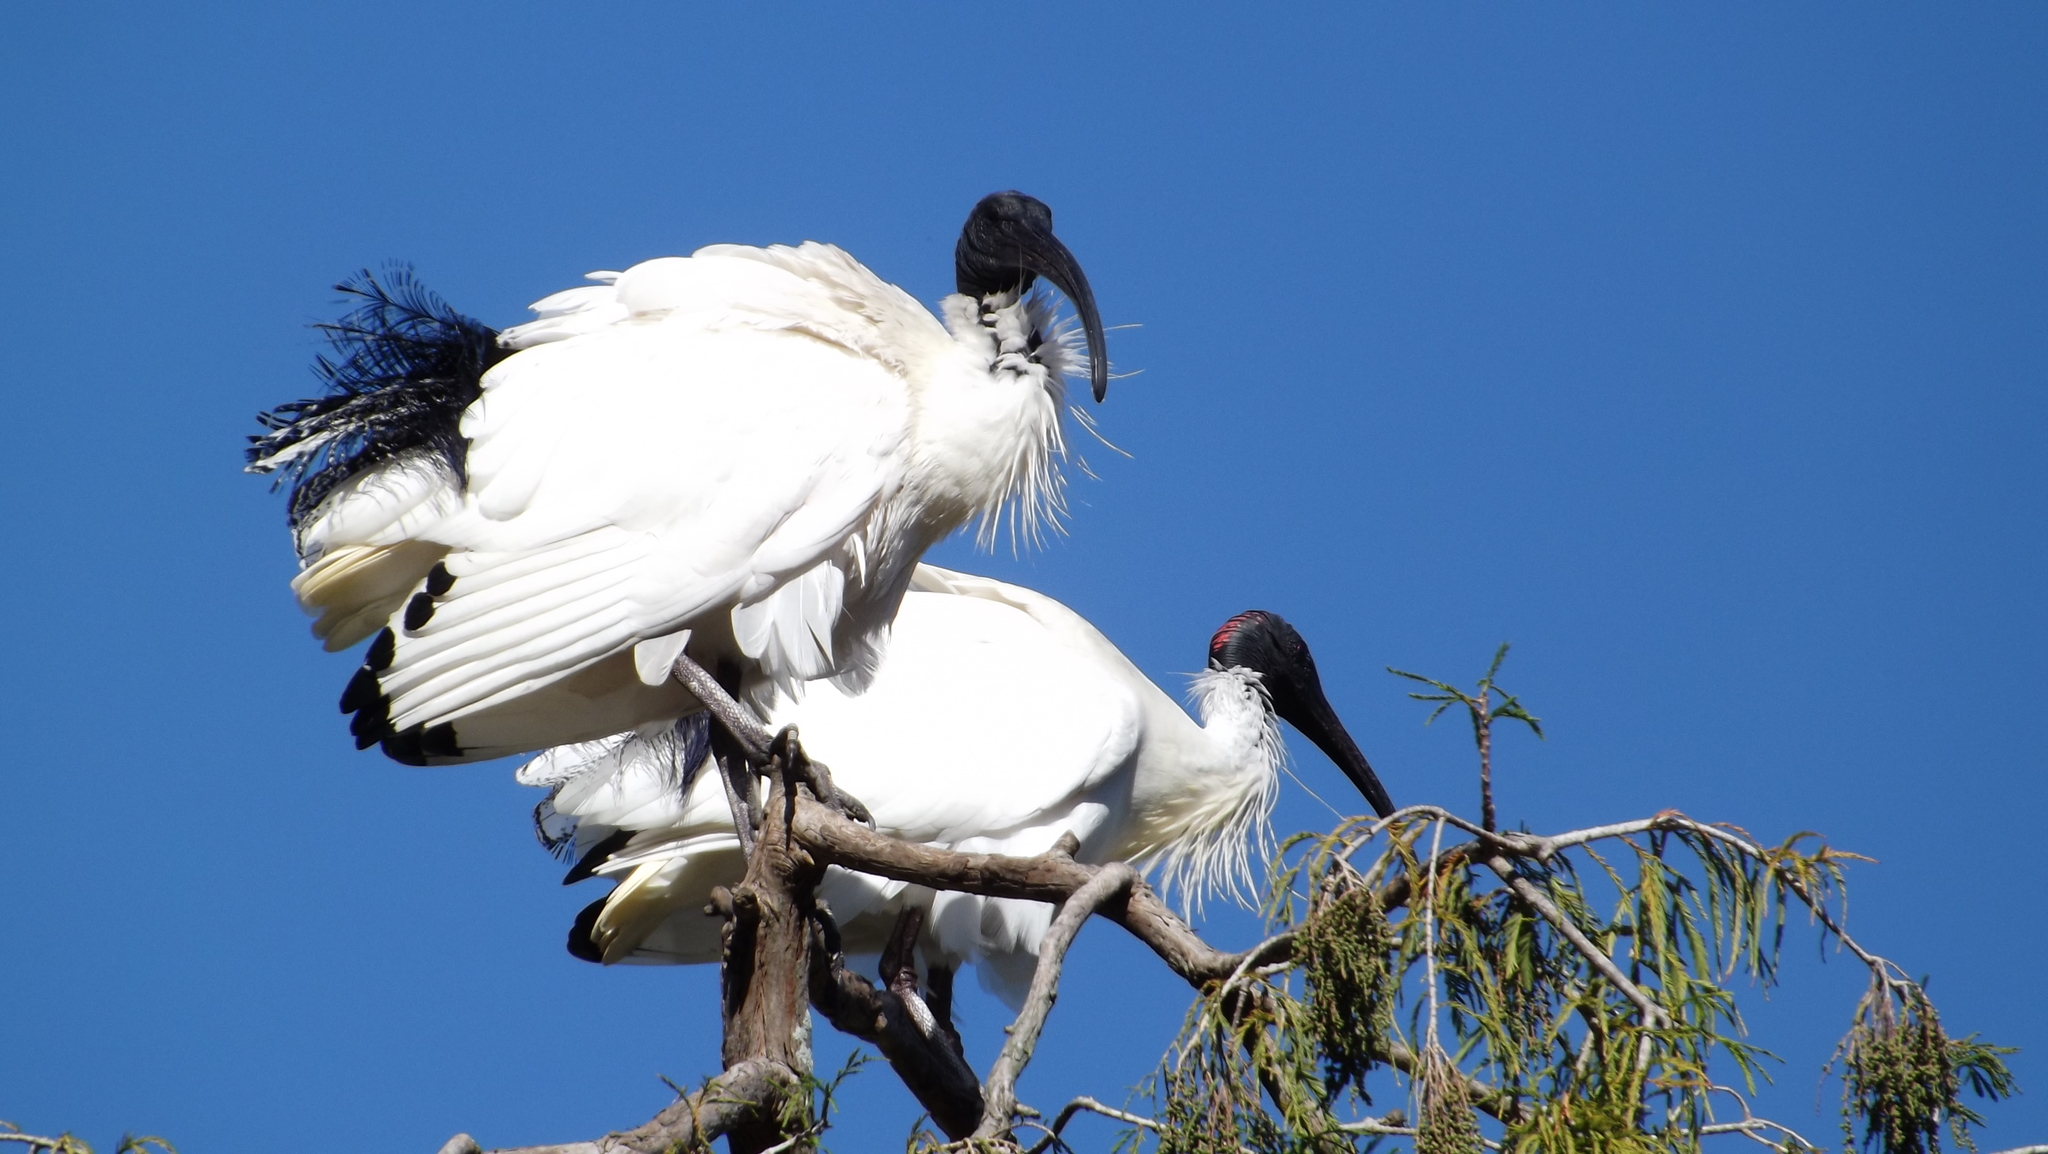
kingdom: Animalia
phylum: Chordata
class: Aves
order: Pelecaniformes
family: Threskiornithidae
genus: Threskiornis
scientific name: Threskiornis molucca
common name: Australian white ibis
